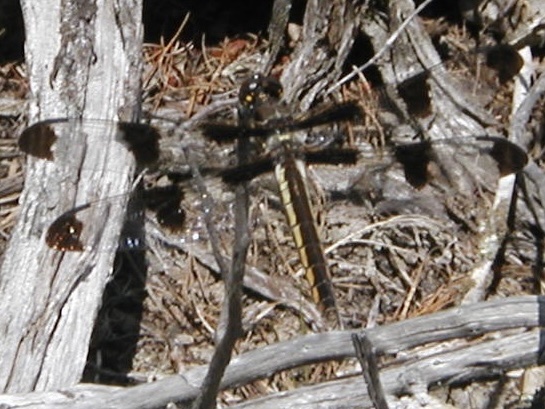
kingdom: Animalia
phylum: Arthropoda
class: Insecta
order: Odonata
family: Libellulidae
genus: Libellula
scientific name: Libellula pulchella
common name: Twelve-spotted skimmer
